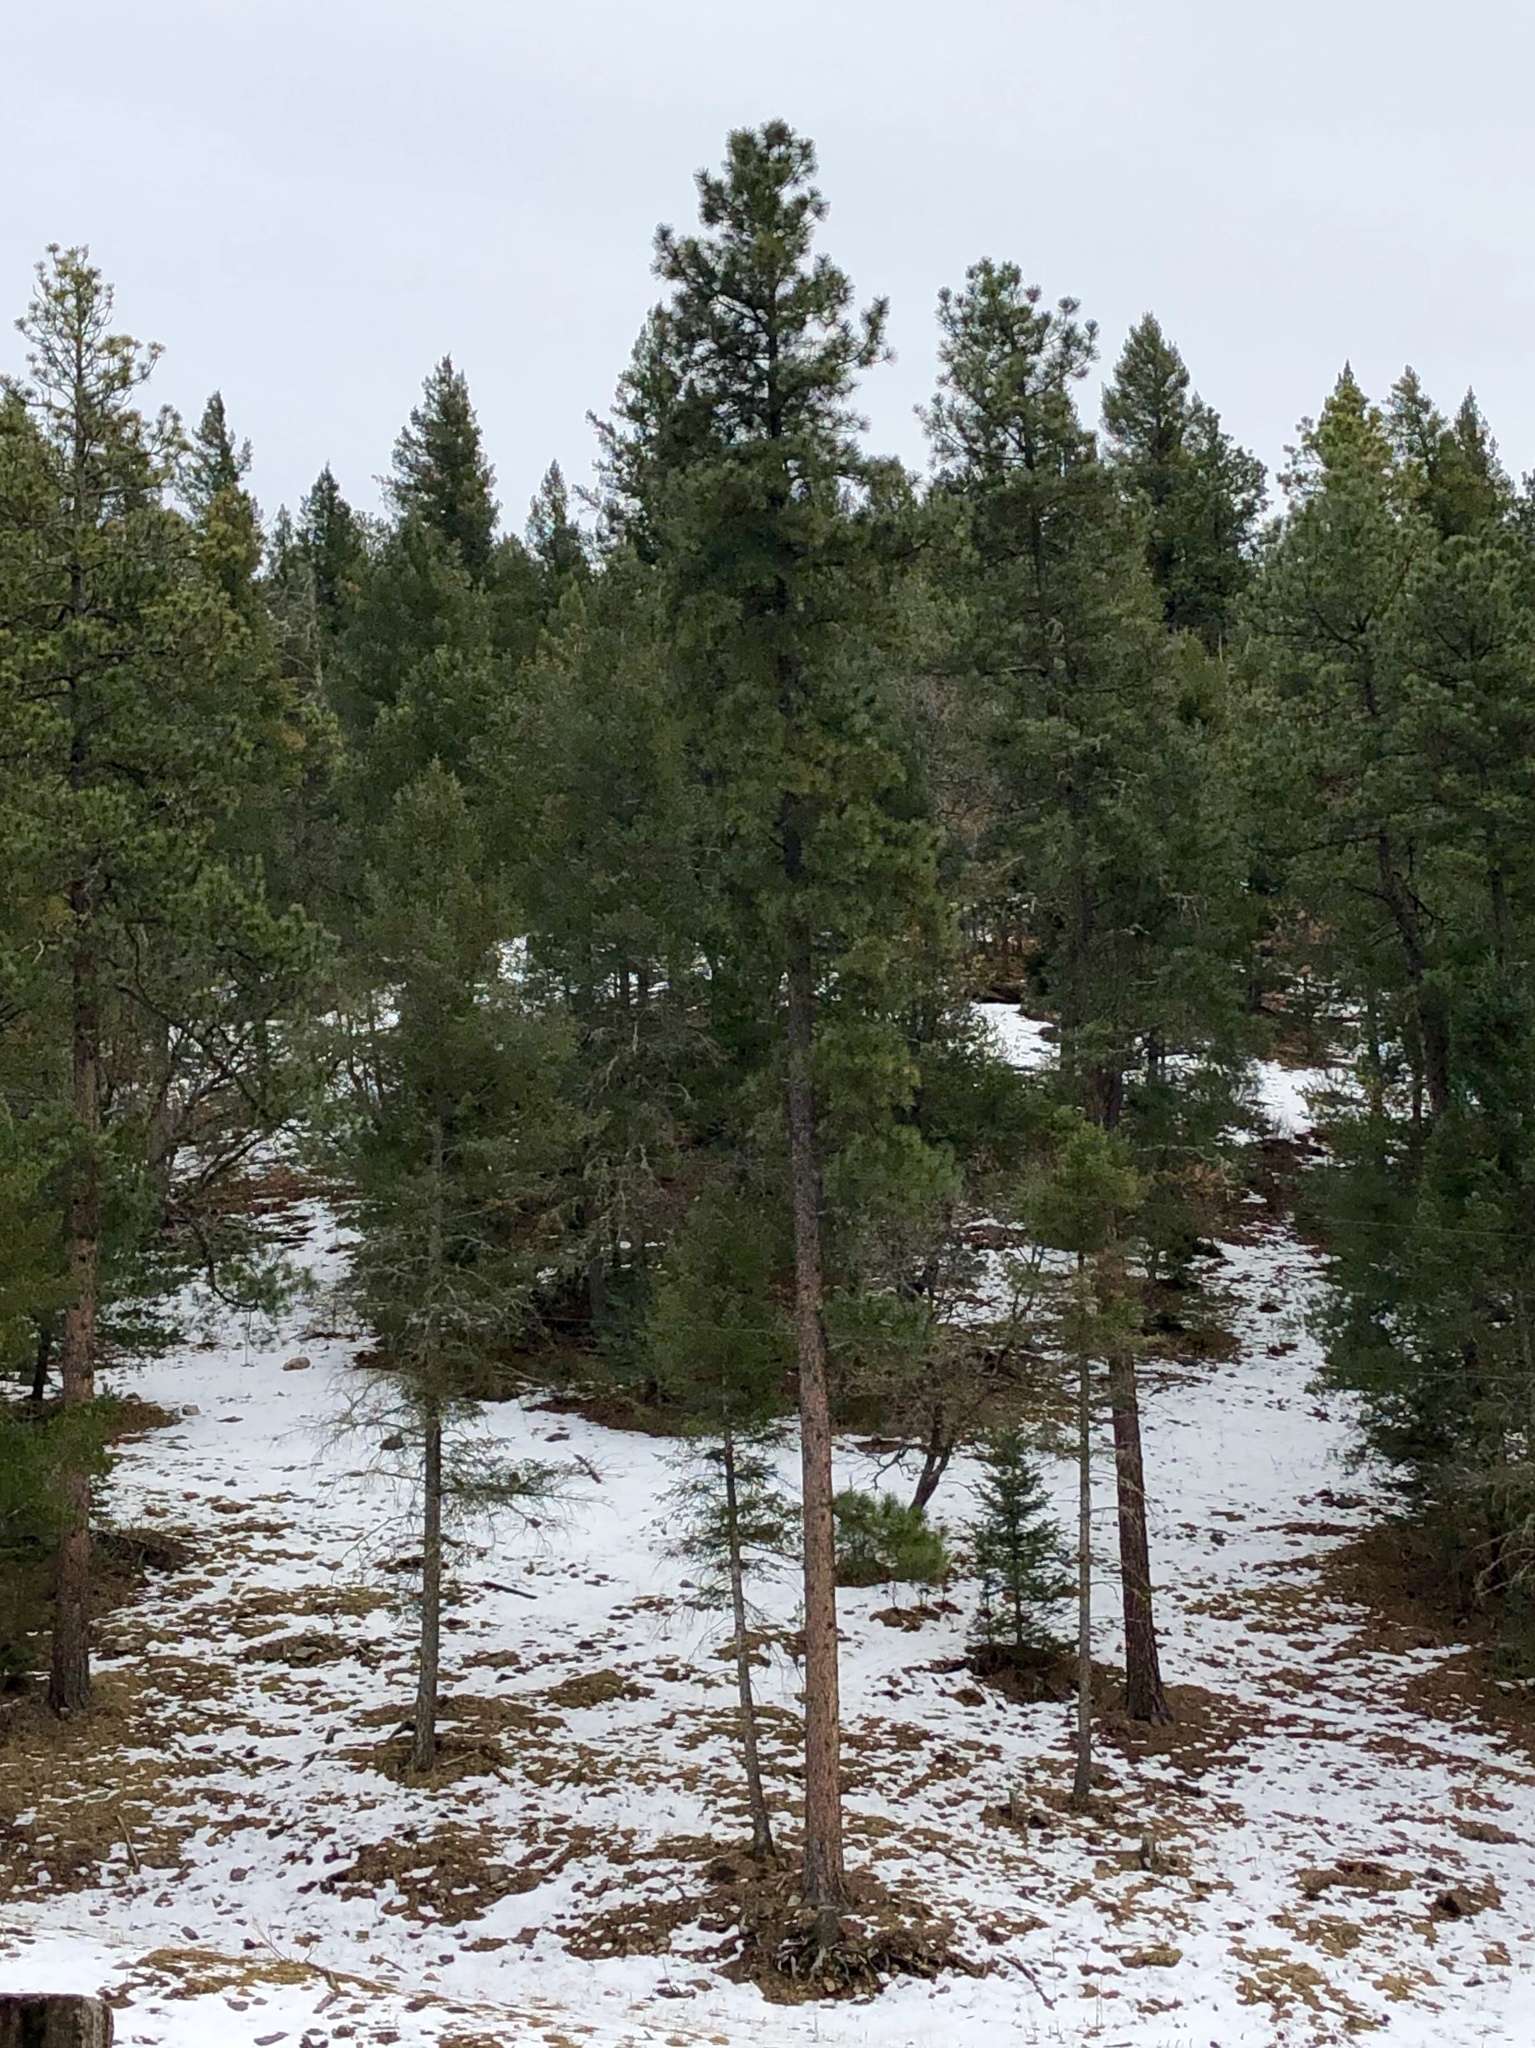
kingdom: Plantae
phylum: Tracheophyta
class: Pinopsida
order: Pinales
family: Pinaceae
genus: Pinus
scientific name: Pinus ponderosa
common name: Western yellow-pine
